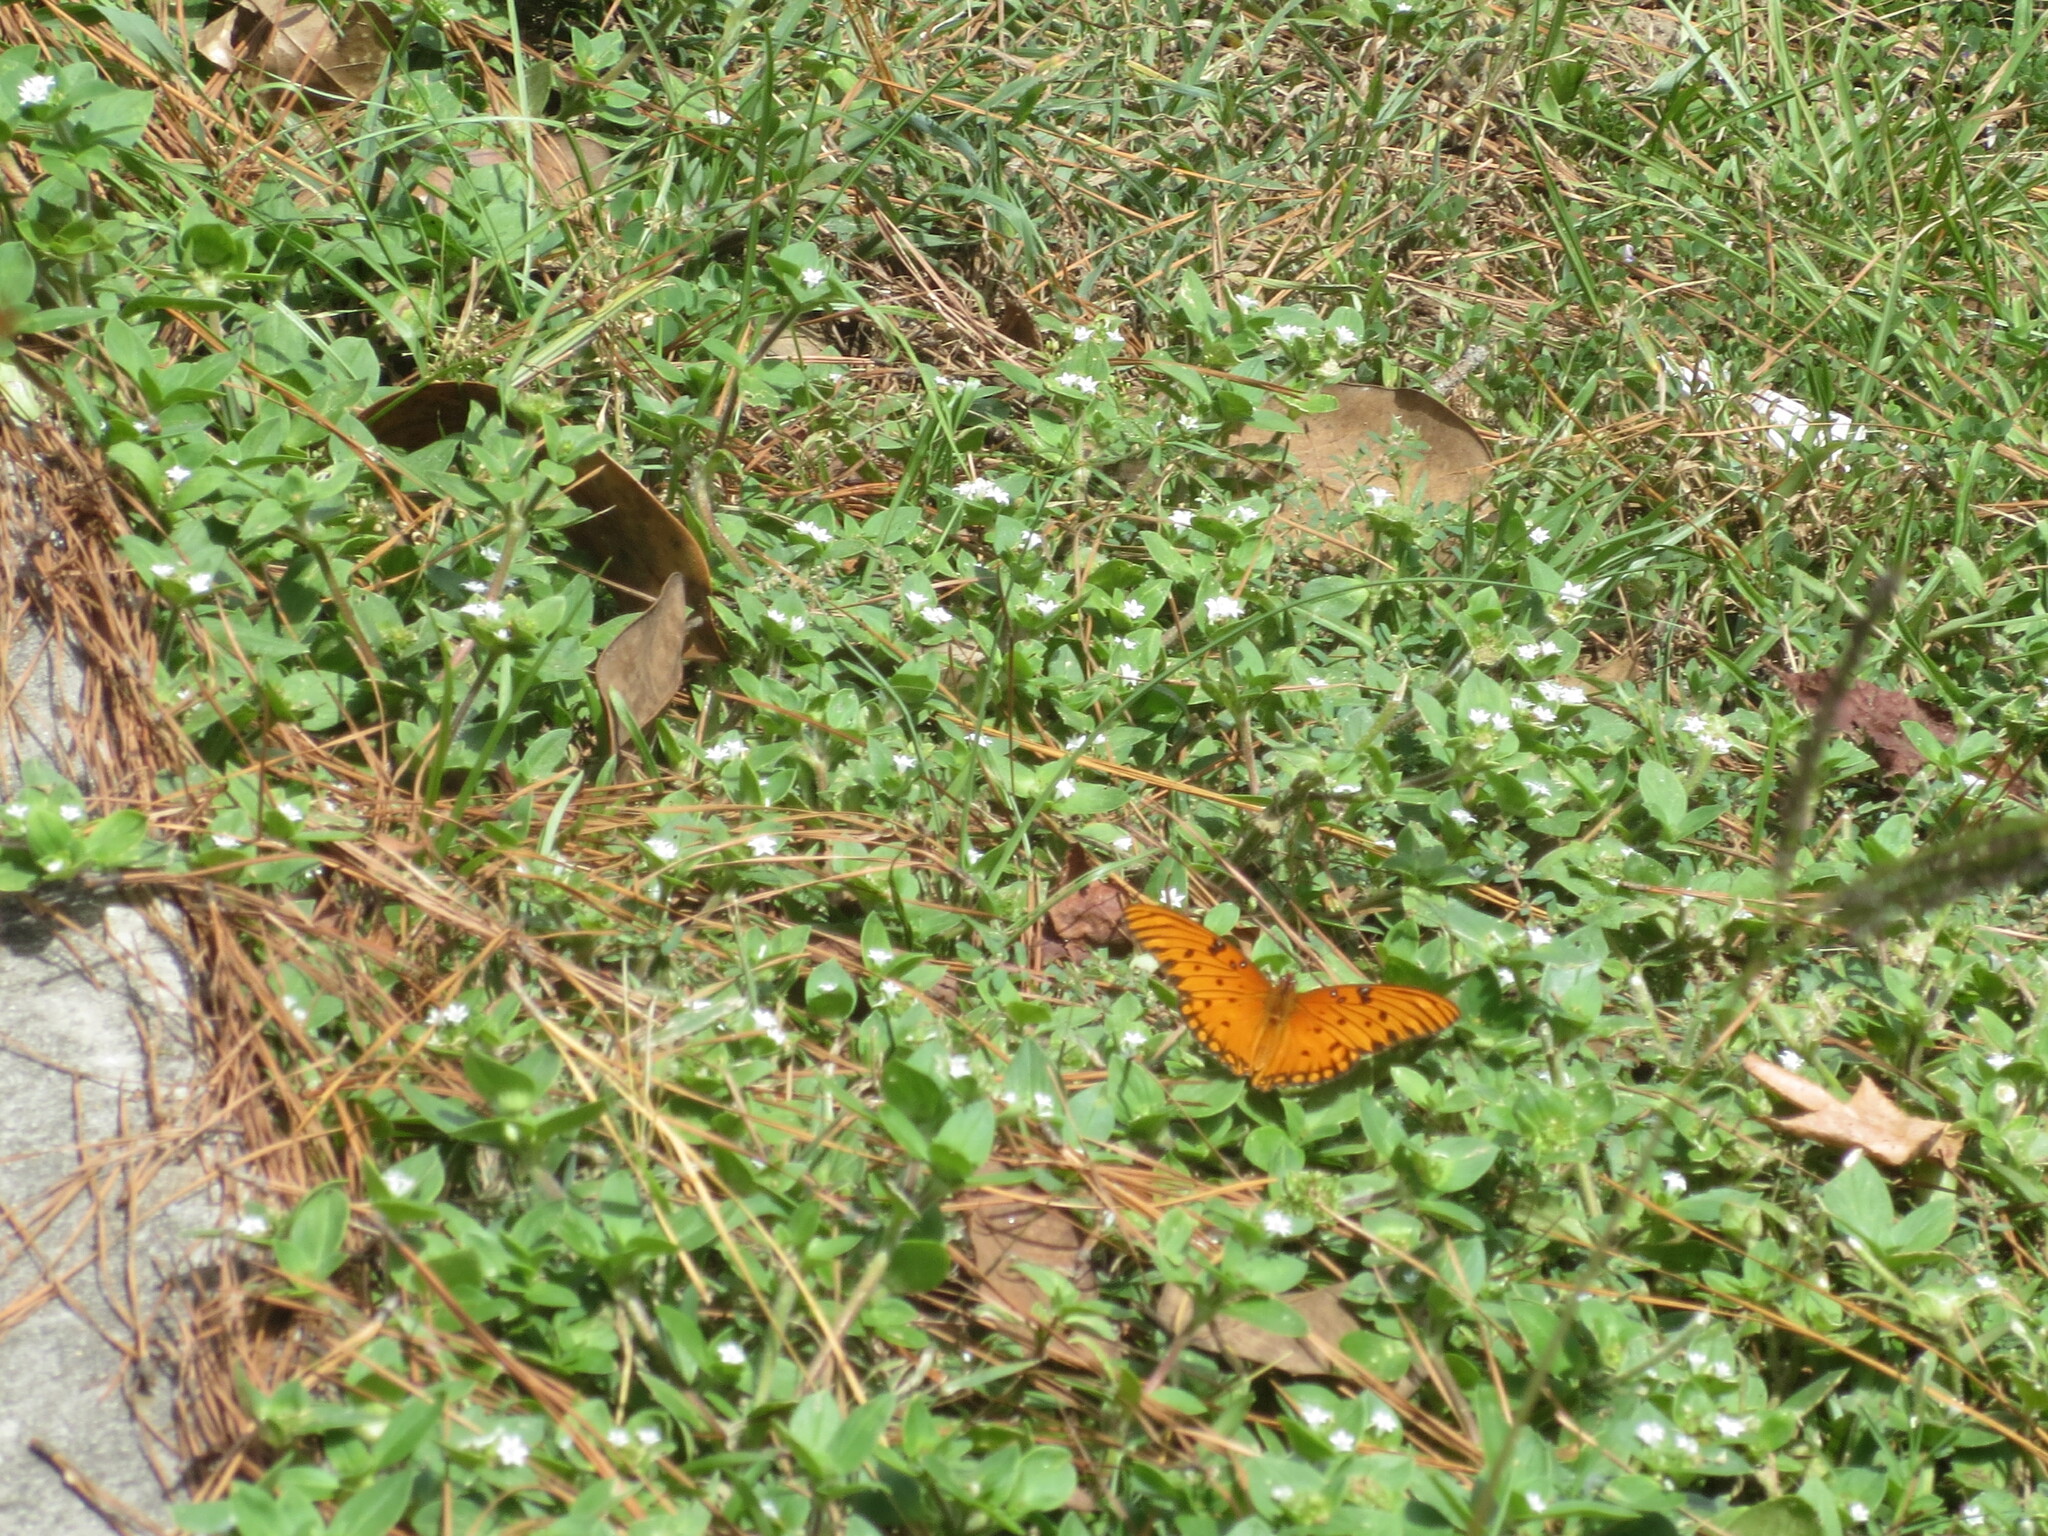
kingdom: Animalia
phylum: Arthropoda
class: Insecta
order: Lepidoptera
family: Nymphalidae
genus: Dione
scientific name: Dione vanillae
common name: Gulf fritillary
